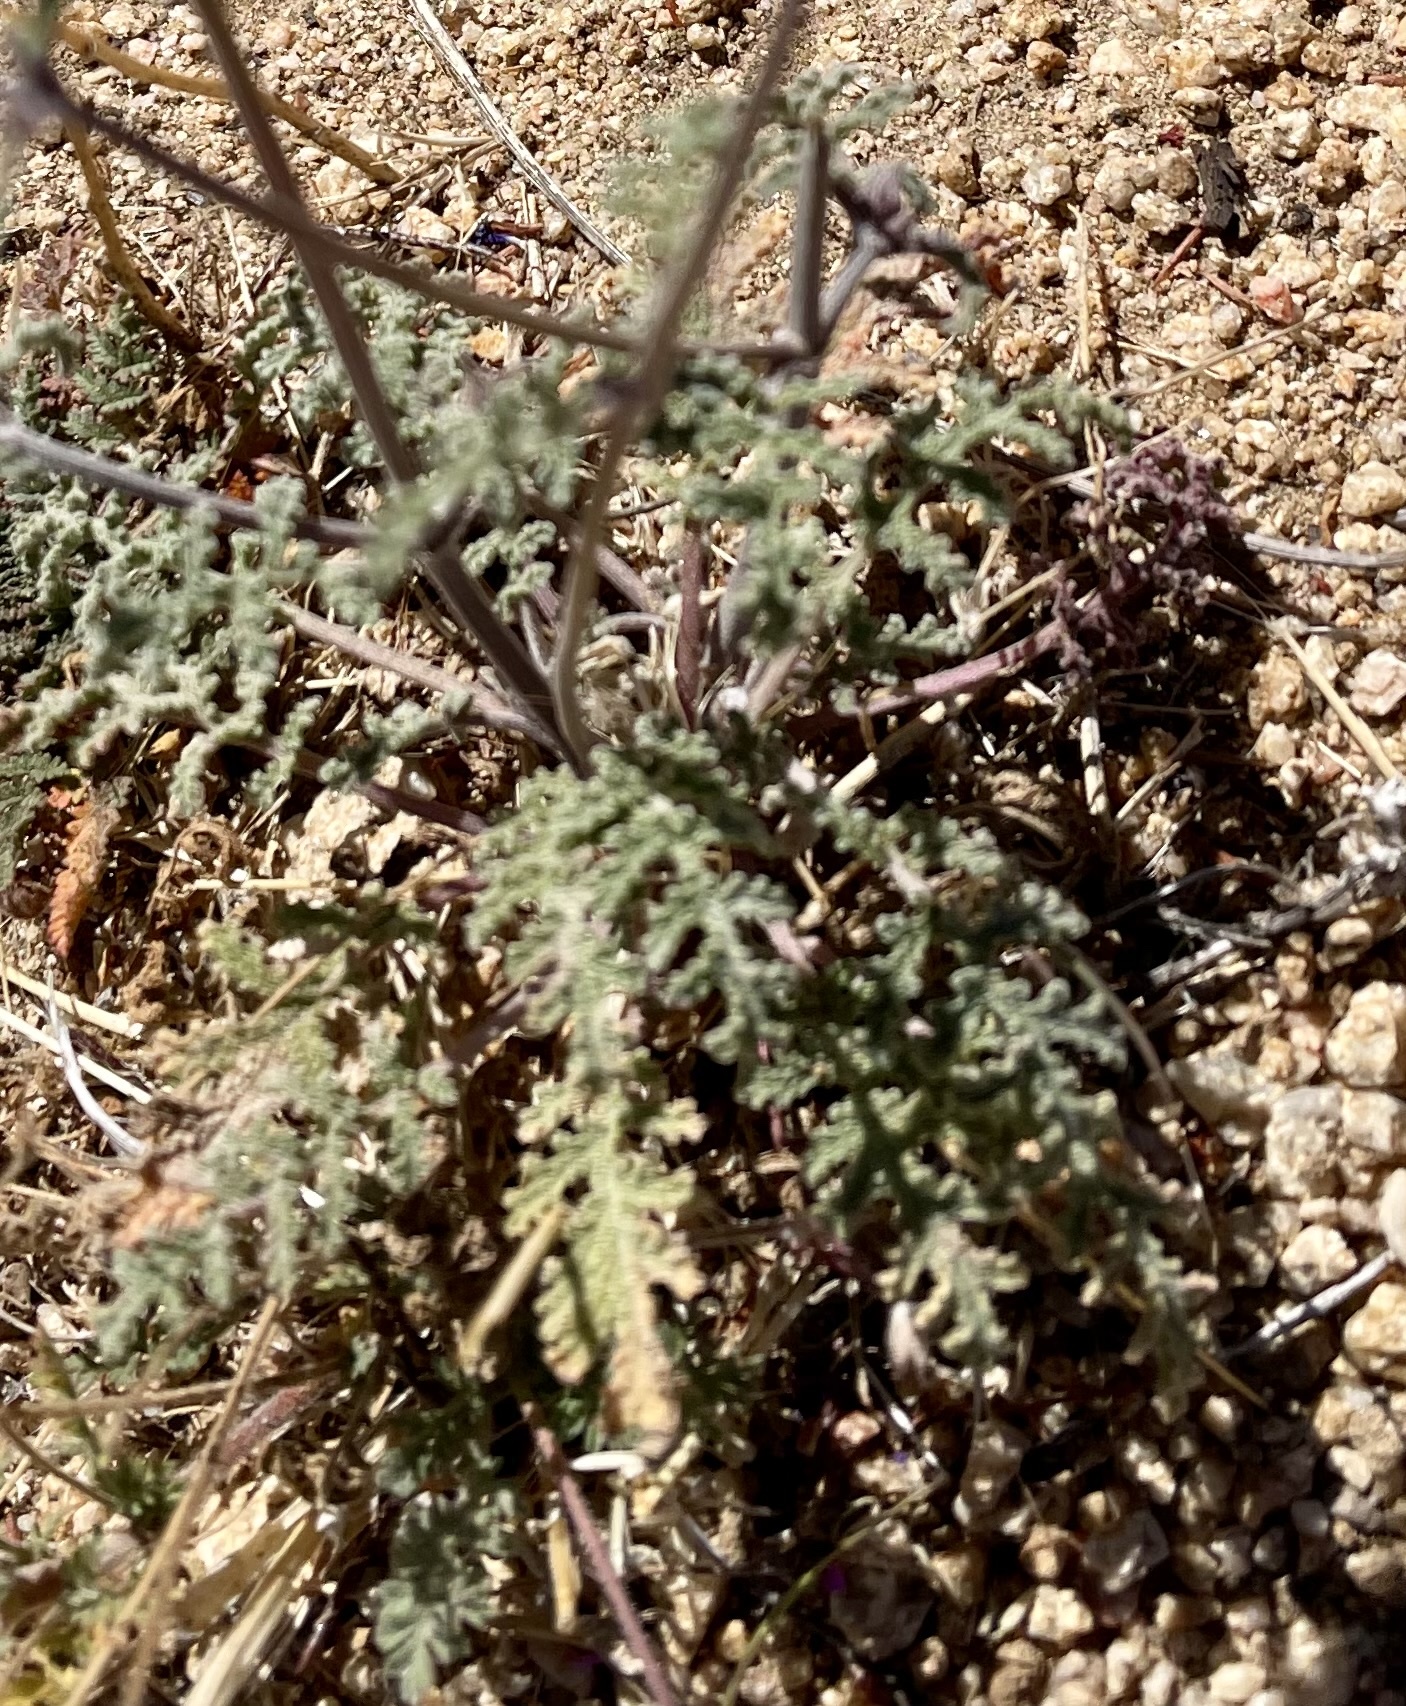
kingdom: Plantae
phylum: Tracheophyta
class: Magnoliopsida
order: Lamiales
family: Lamiaceae
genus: Salvia
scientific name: Salvia columbariae
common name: Chia
